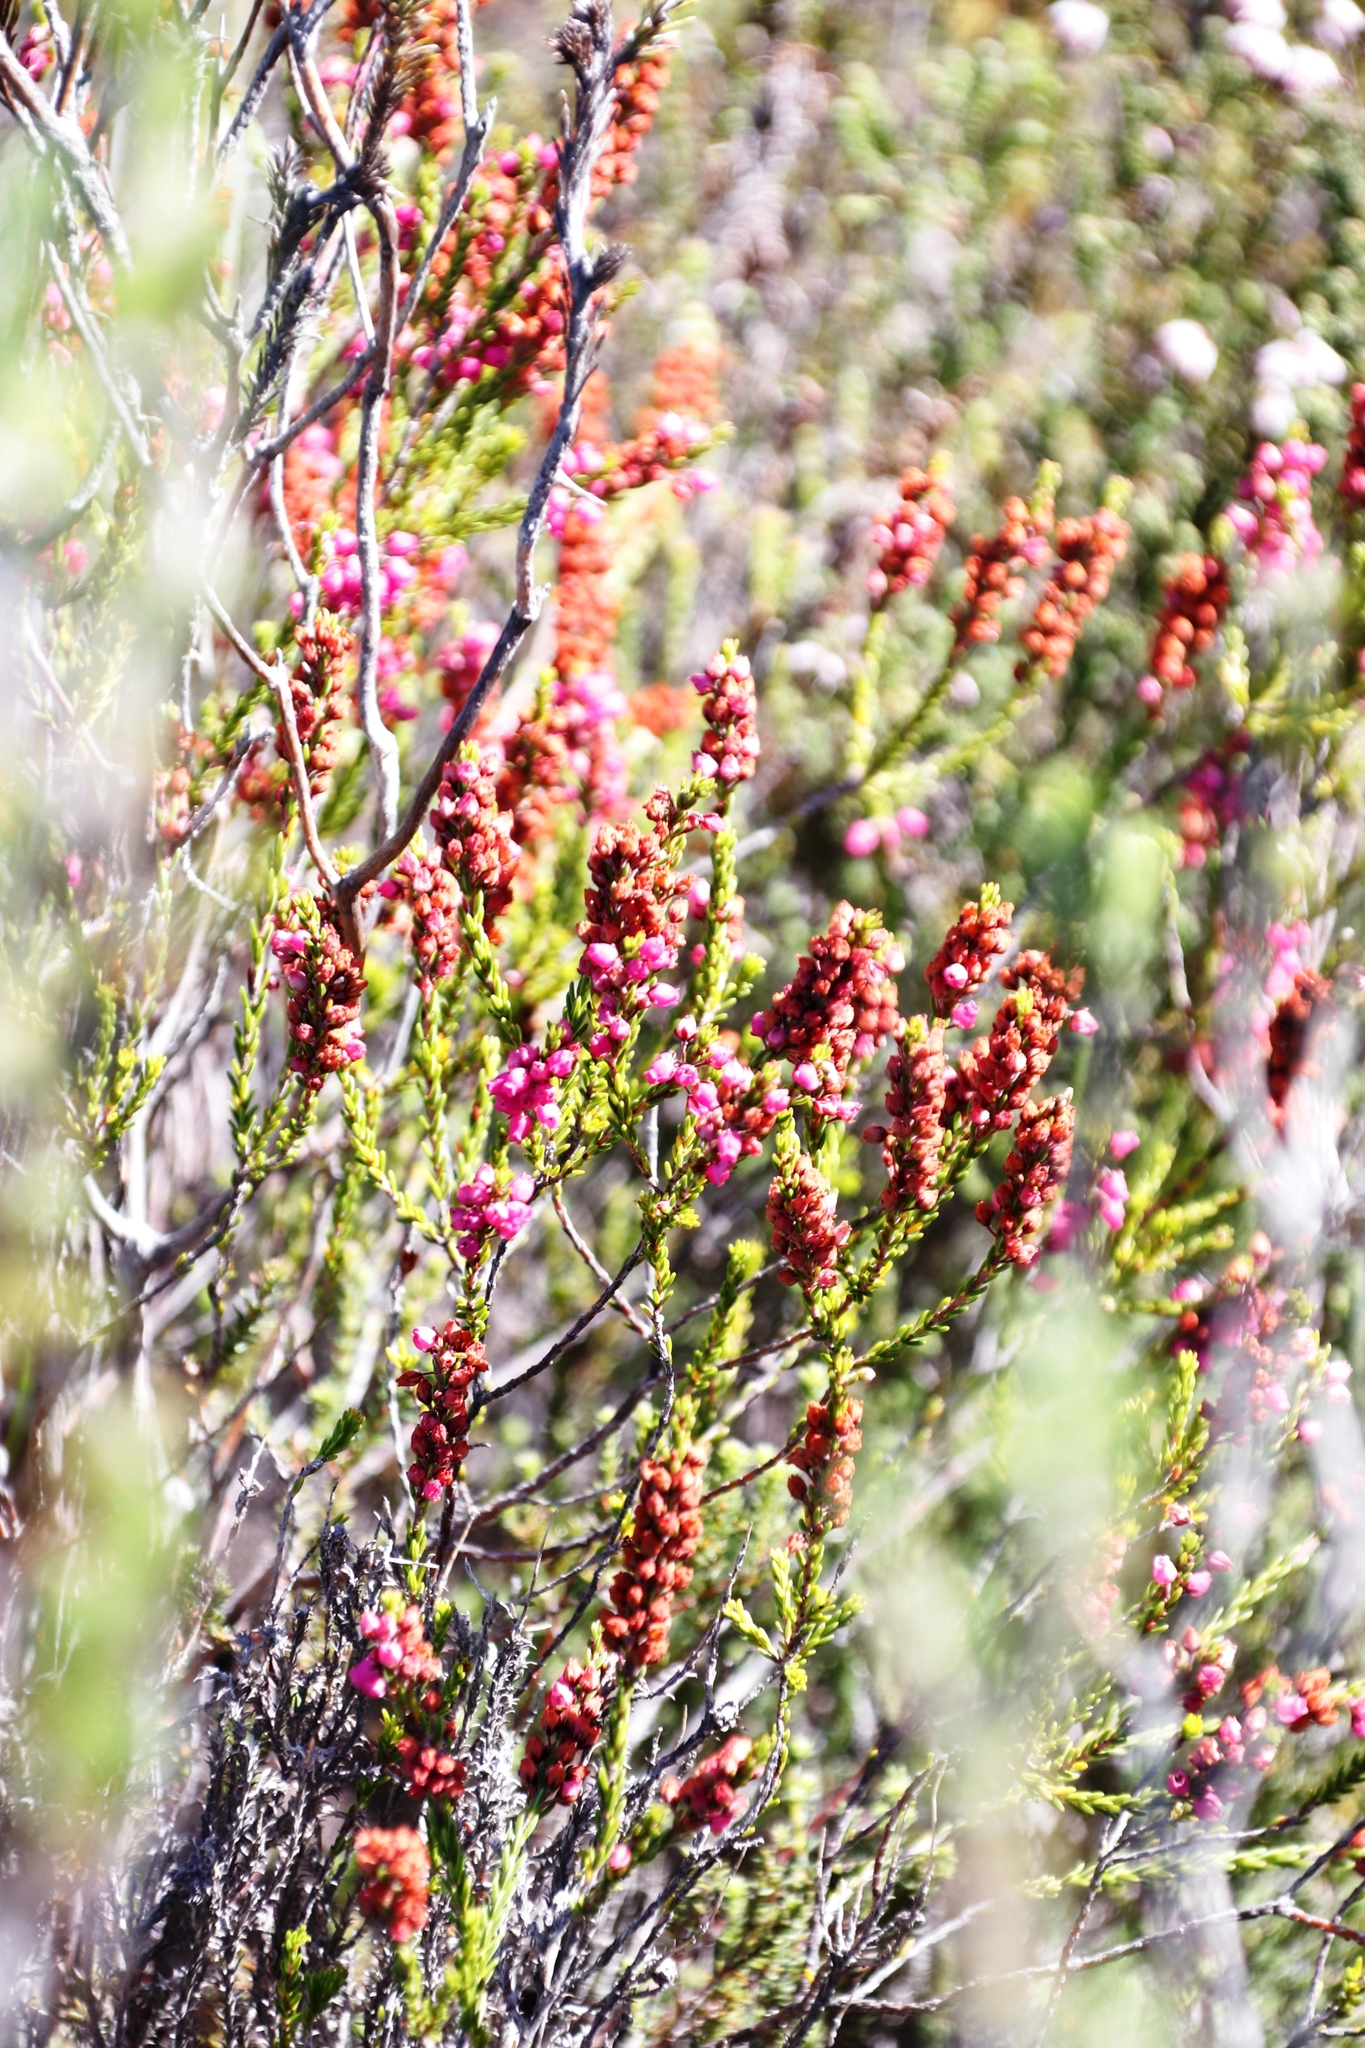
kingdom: Plantae
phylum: Tracheophyta
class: Magnoliopsida
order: Ericales
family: Ericaceae
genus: Erica
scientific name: Erica pulchella
